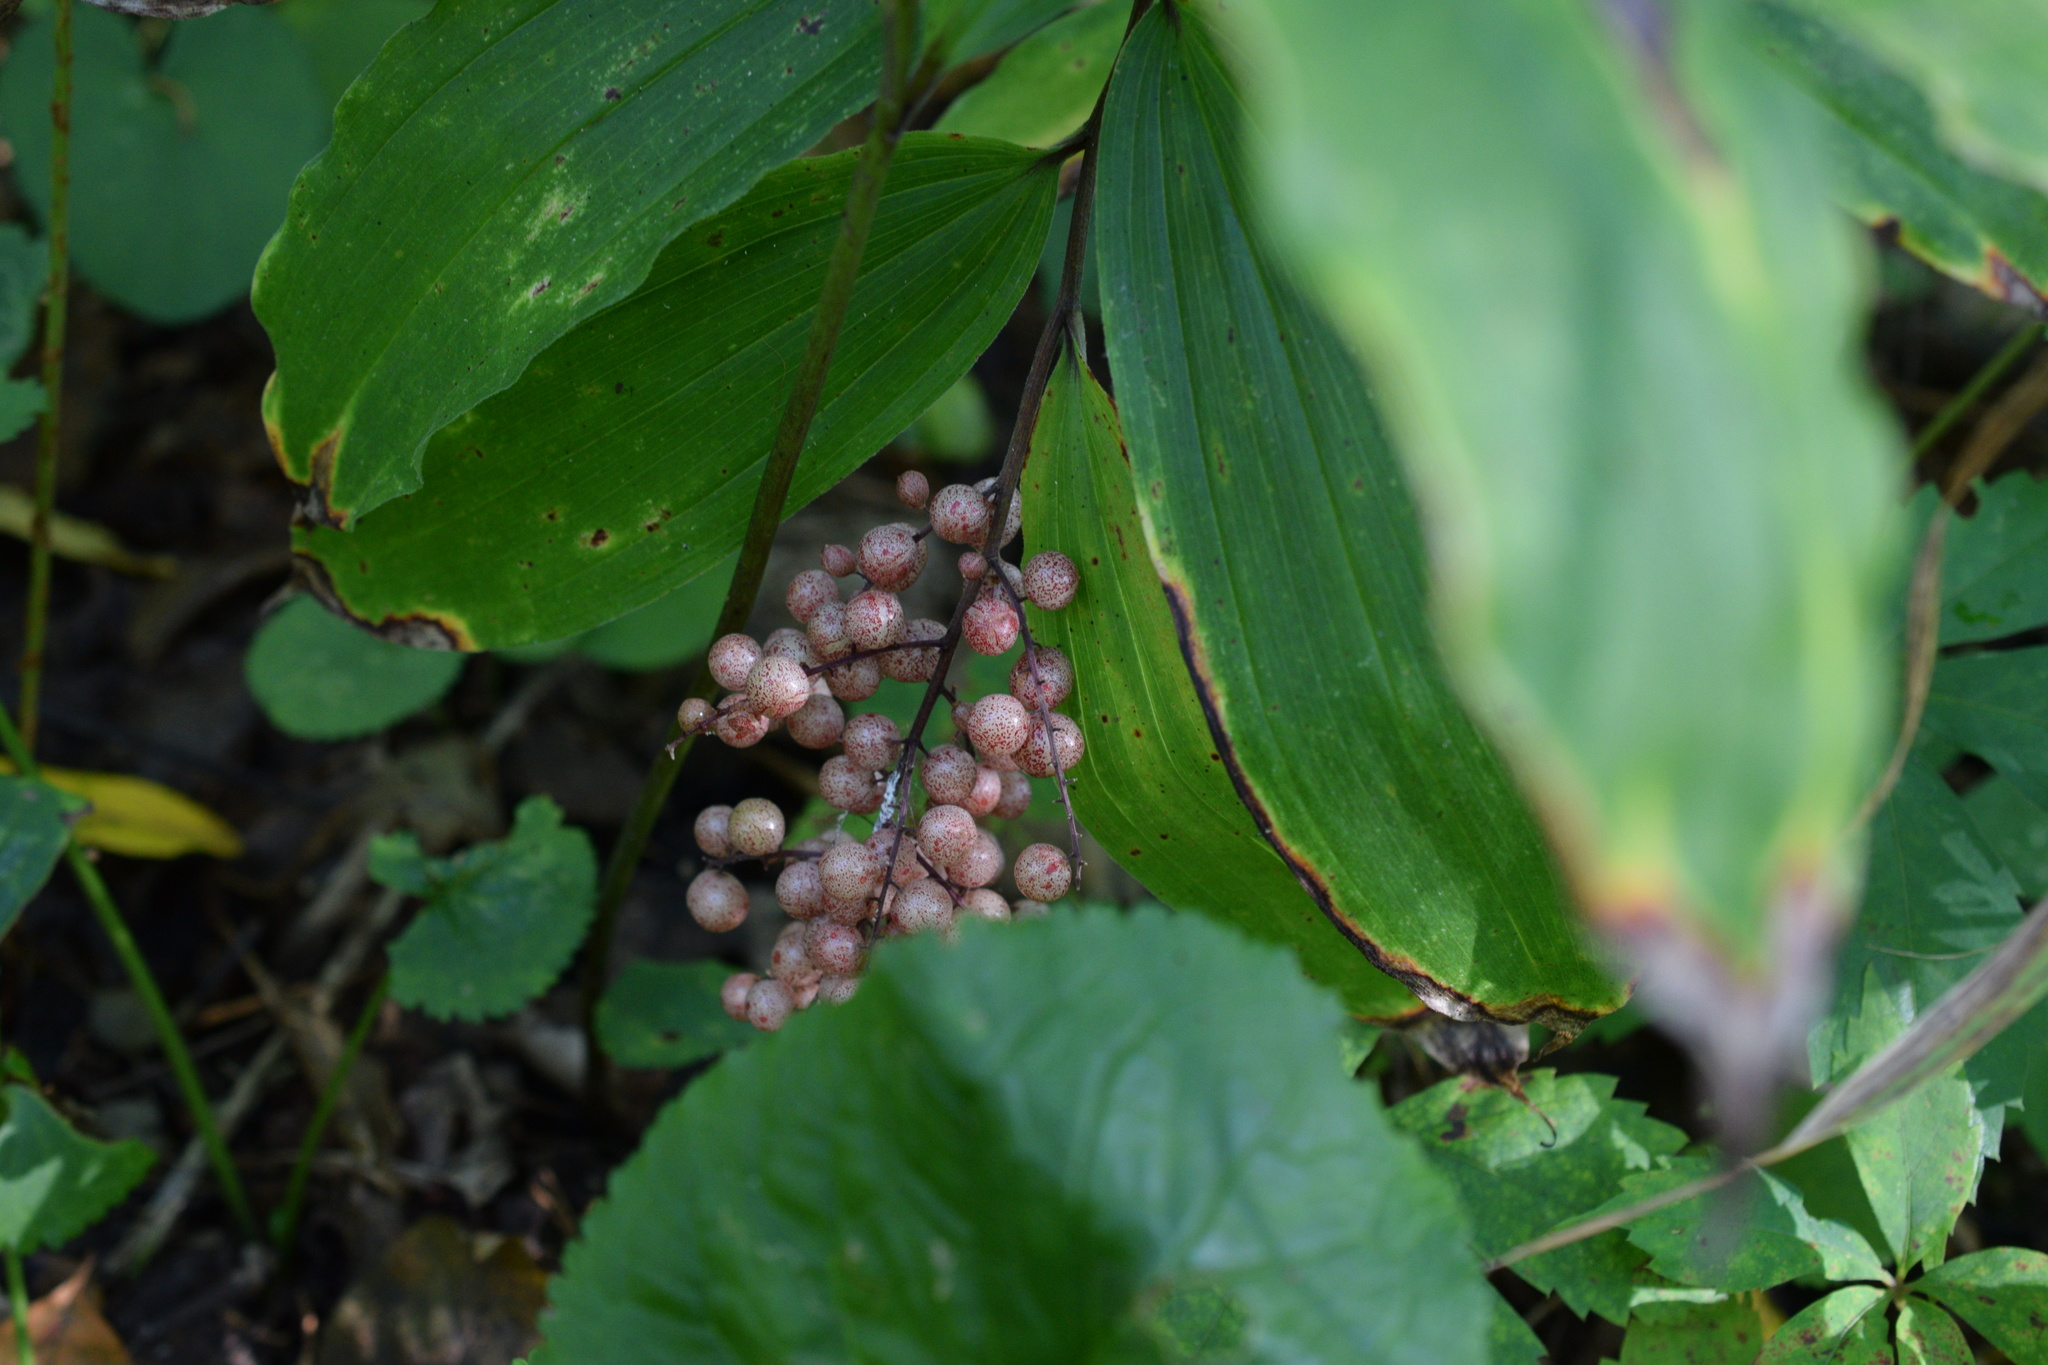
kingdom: Plantae
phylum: Tracheophyta
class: Liliopsida
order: Asparagales
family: Asparagaceae
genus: Maianthemum
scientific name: Maianthemum racemosum
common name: False spikenard
